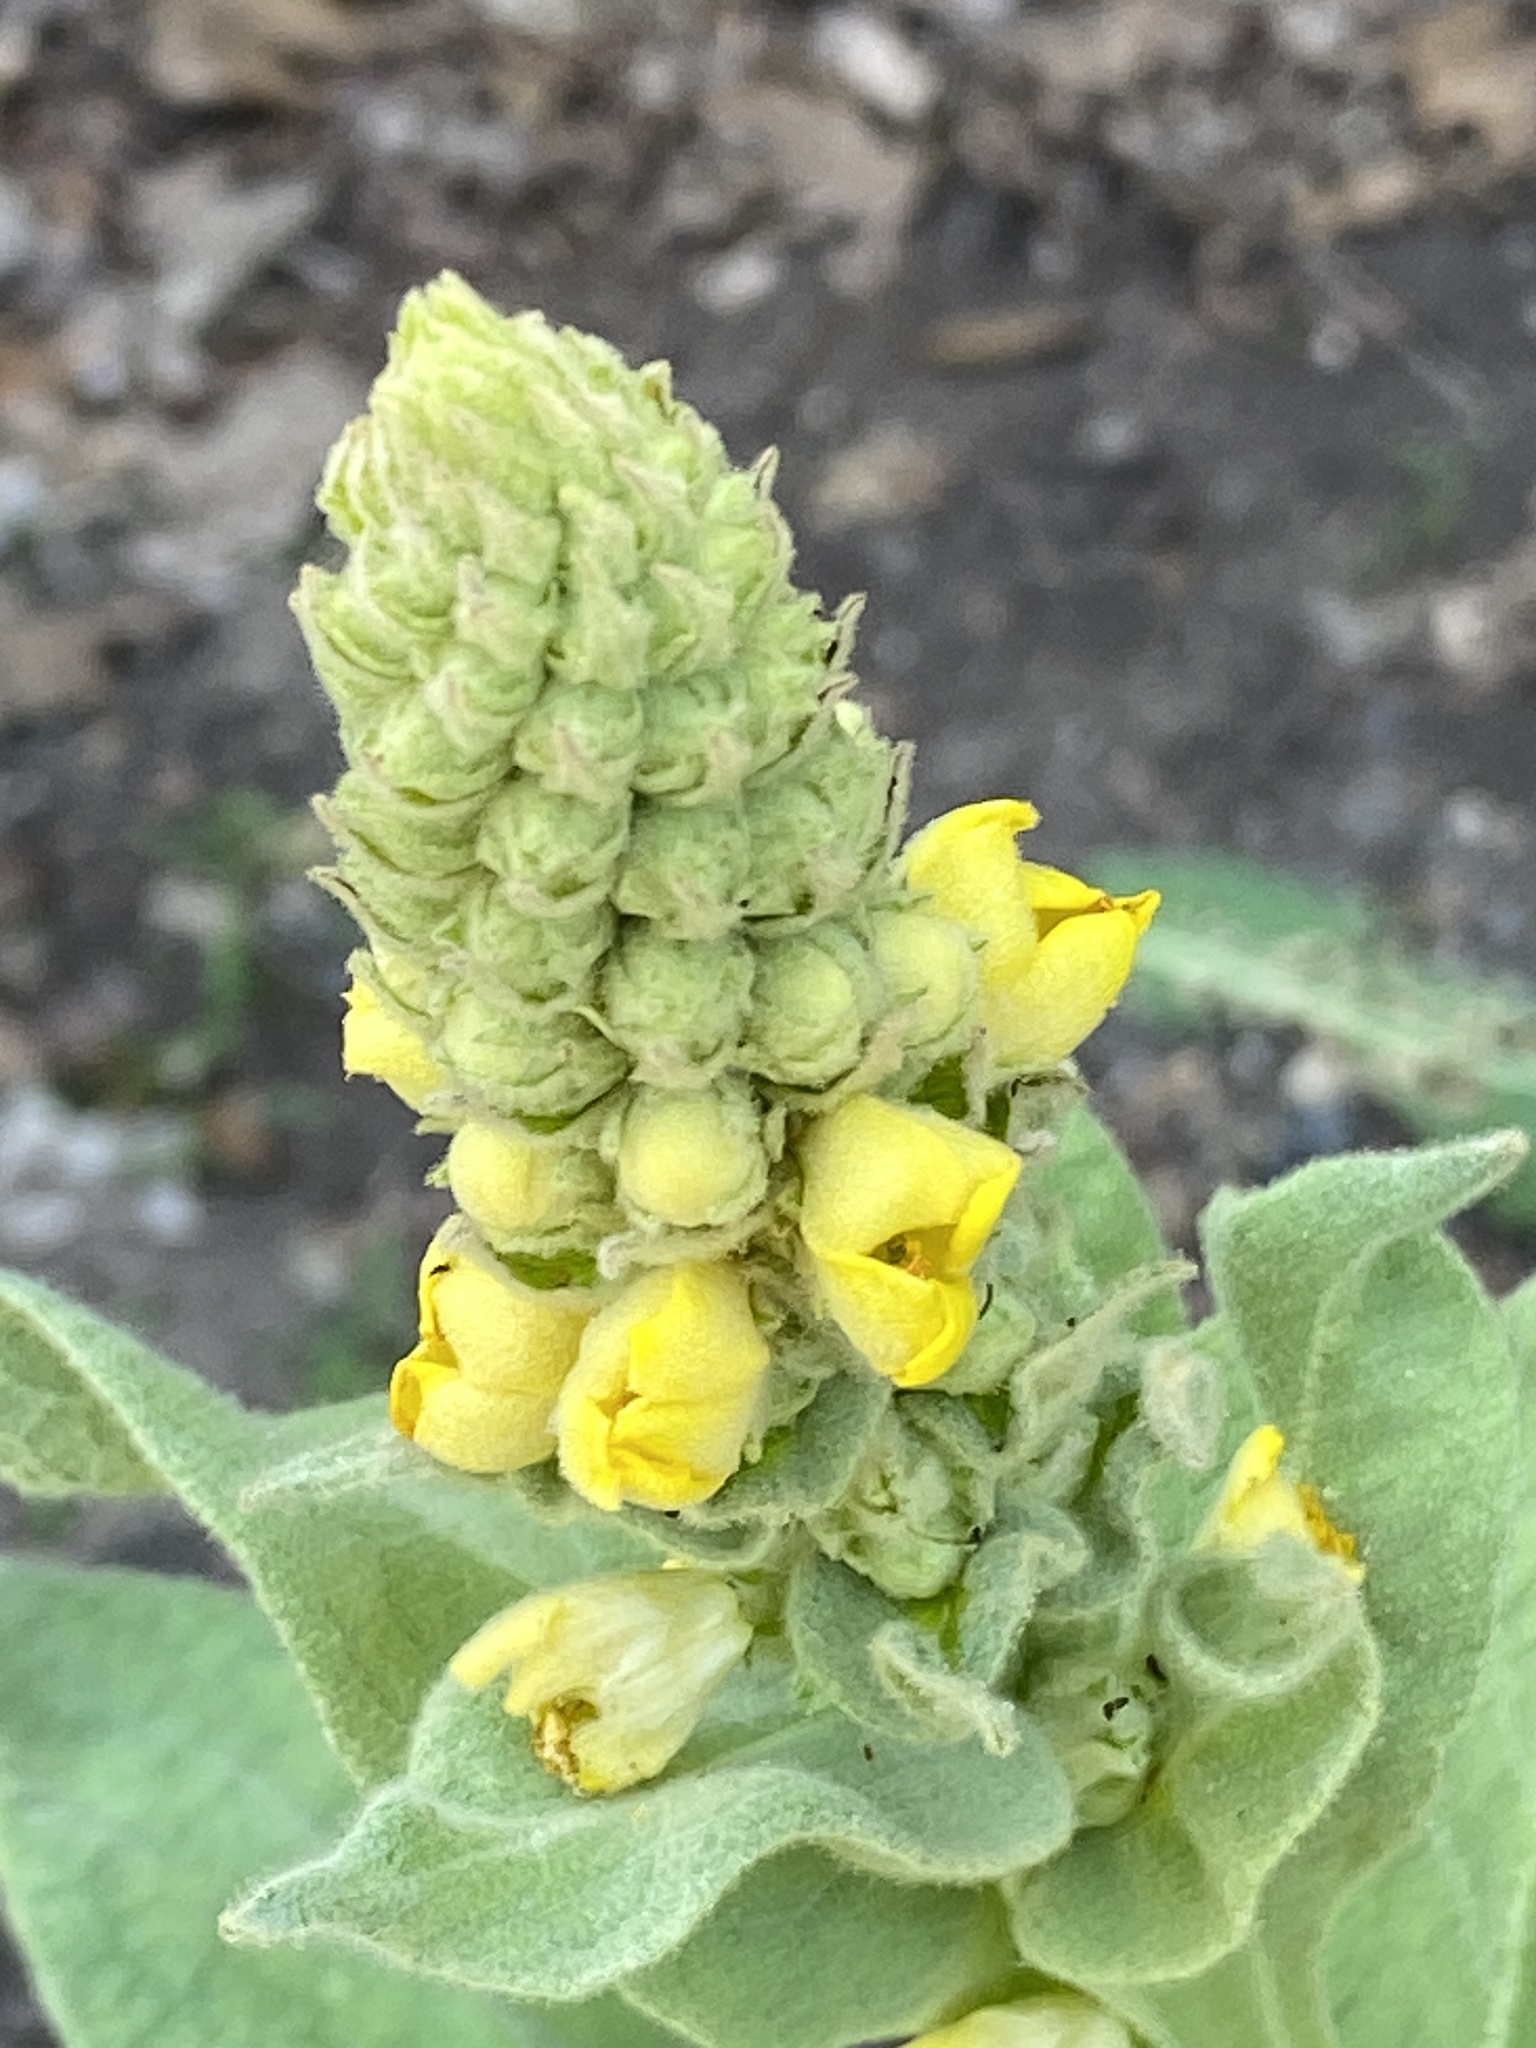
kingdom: Plantae
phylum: Tracheophyta
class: Magnoliopsida
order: Lamiales
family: Scrophulariaceae
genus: Verbascum
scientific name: Verbascum thapsus
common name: Common mullein
